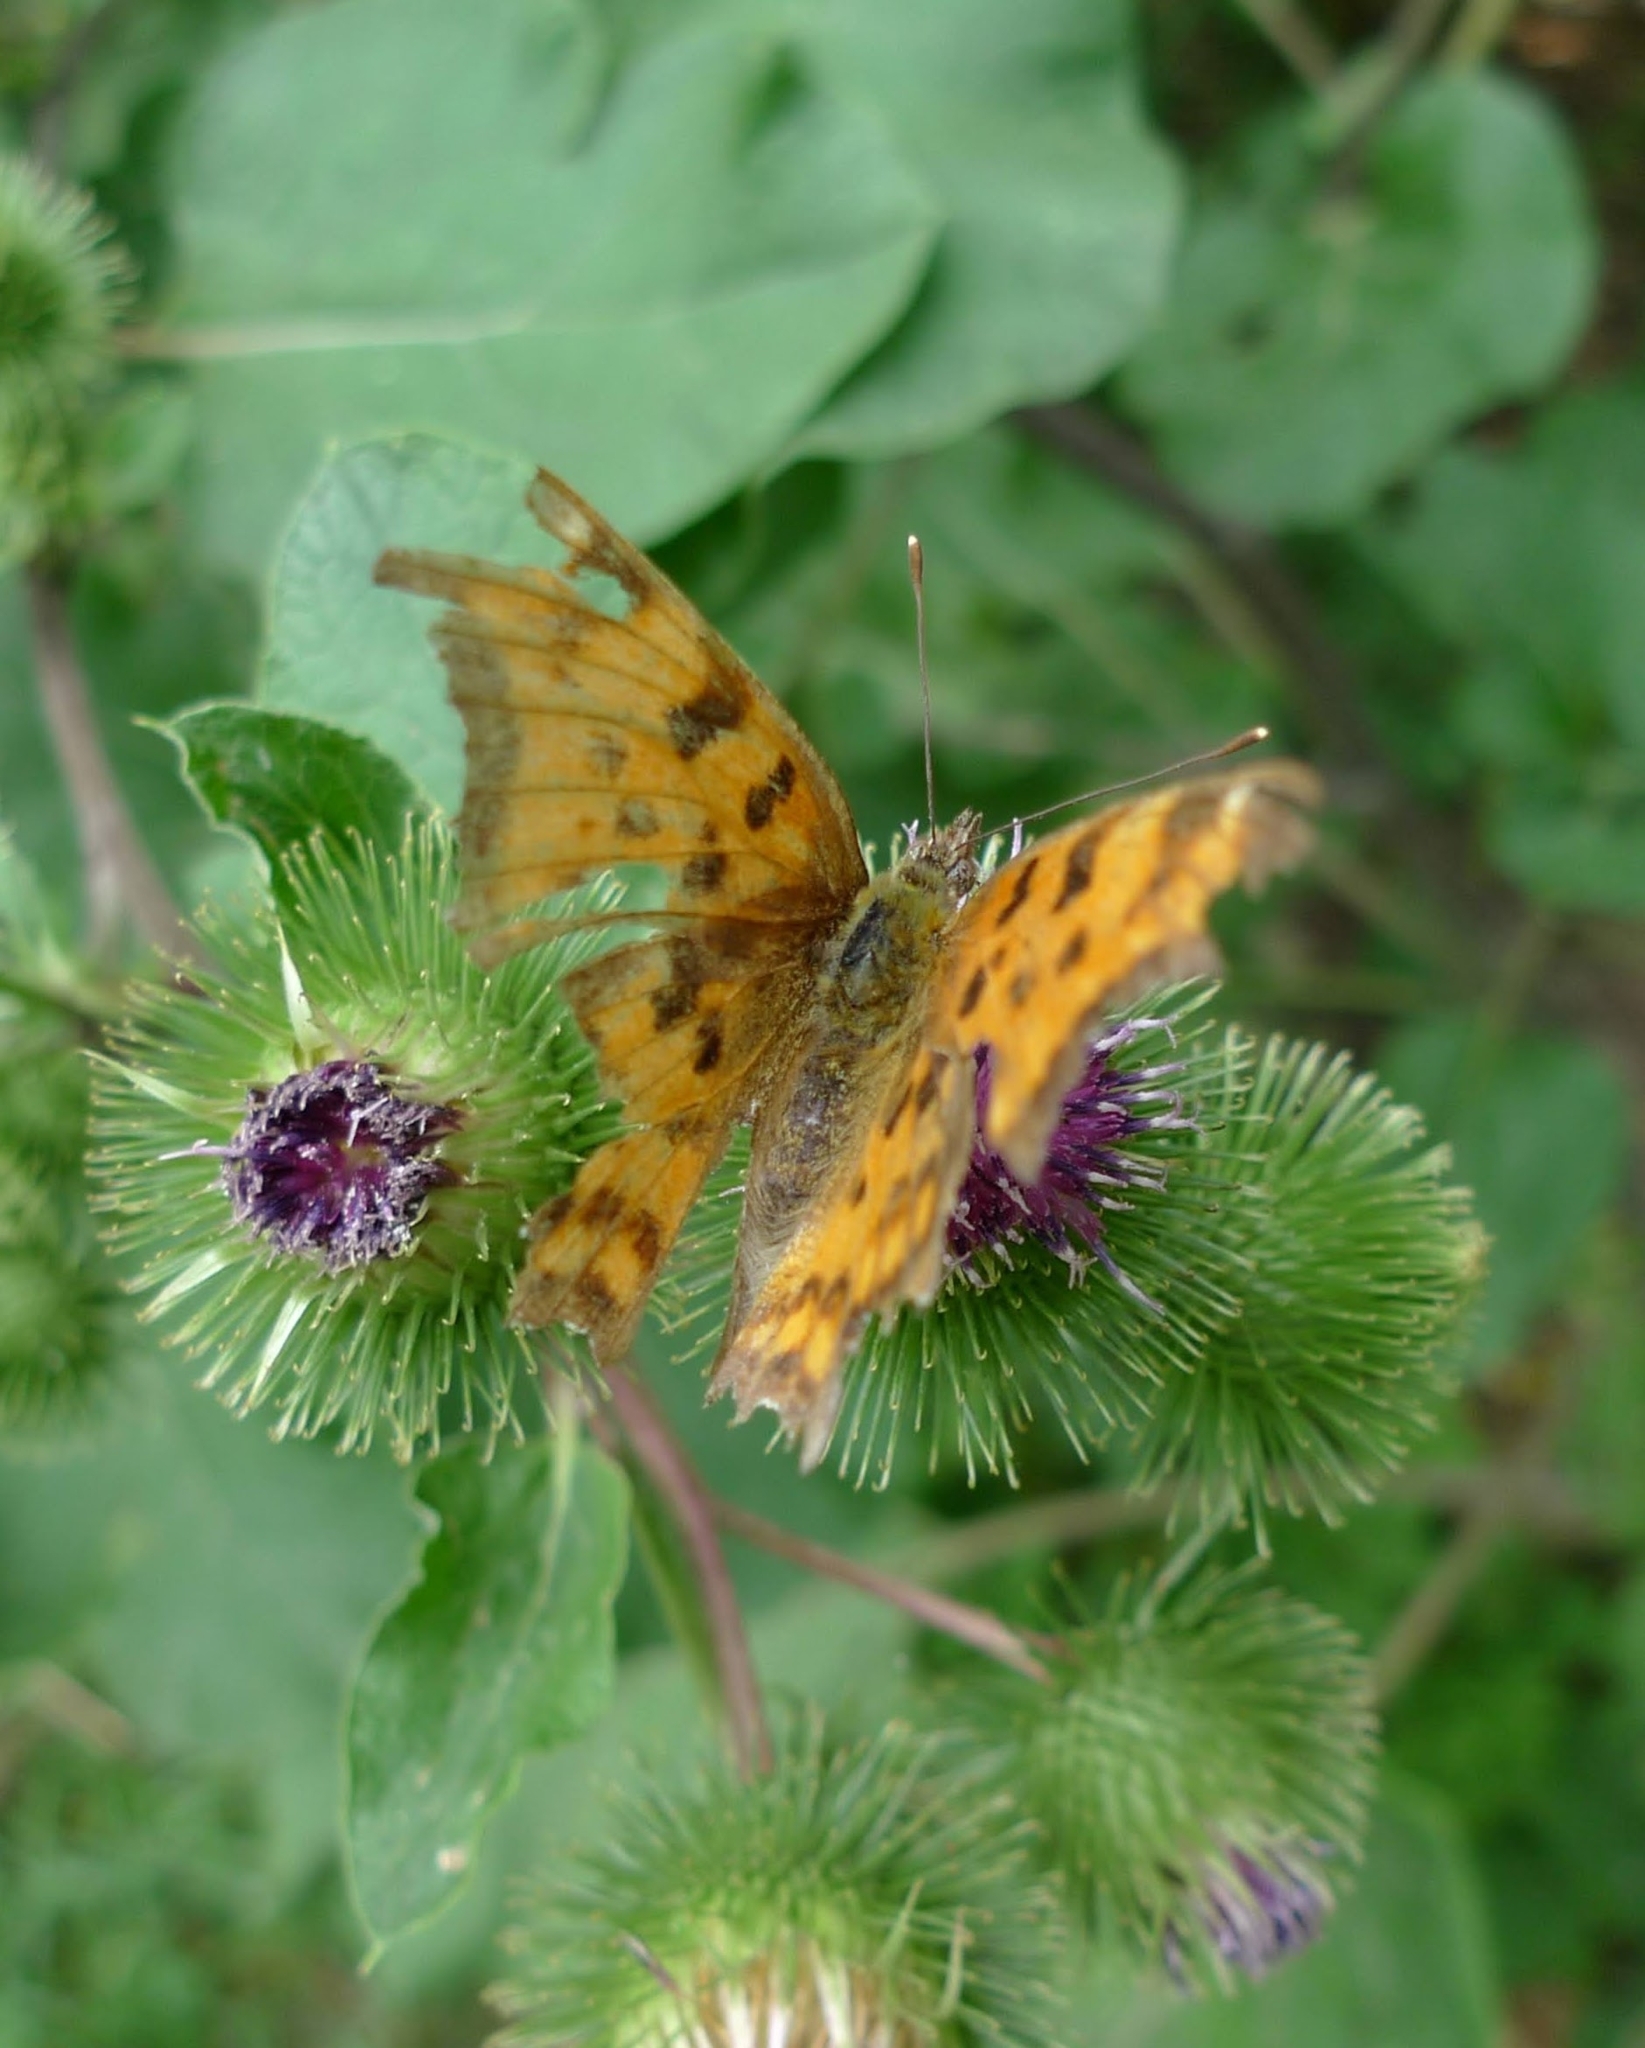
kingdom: Animalia
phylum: Arthropoda
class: Insecta
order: Lepidoptera
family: Nymphalidae
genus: Polygonia
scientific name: Polygonia c-album
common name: Comma
